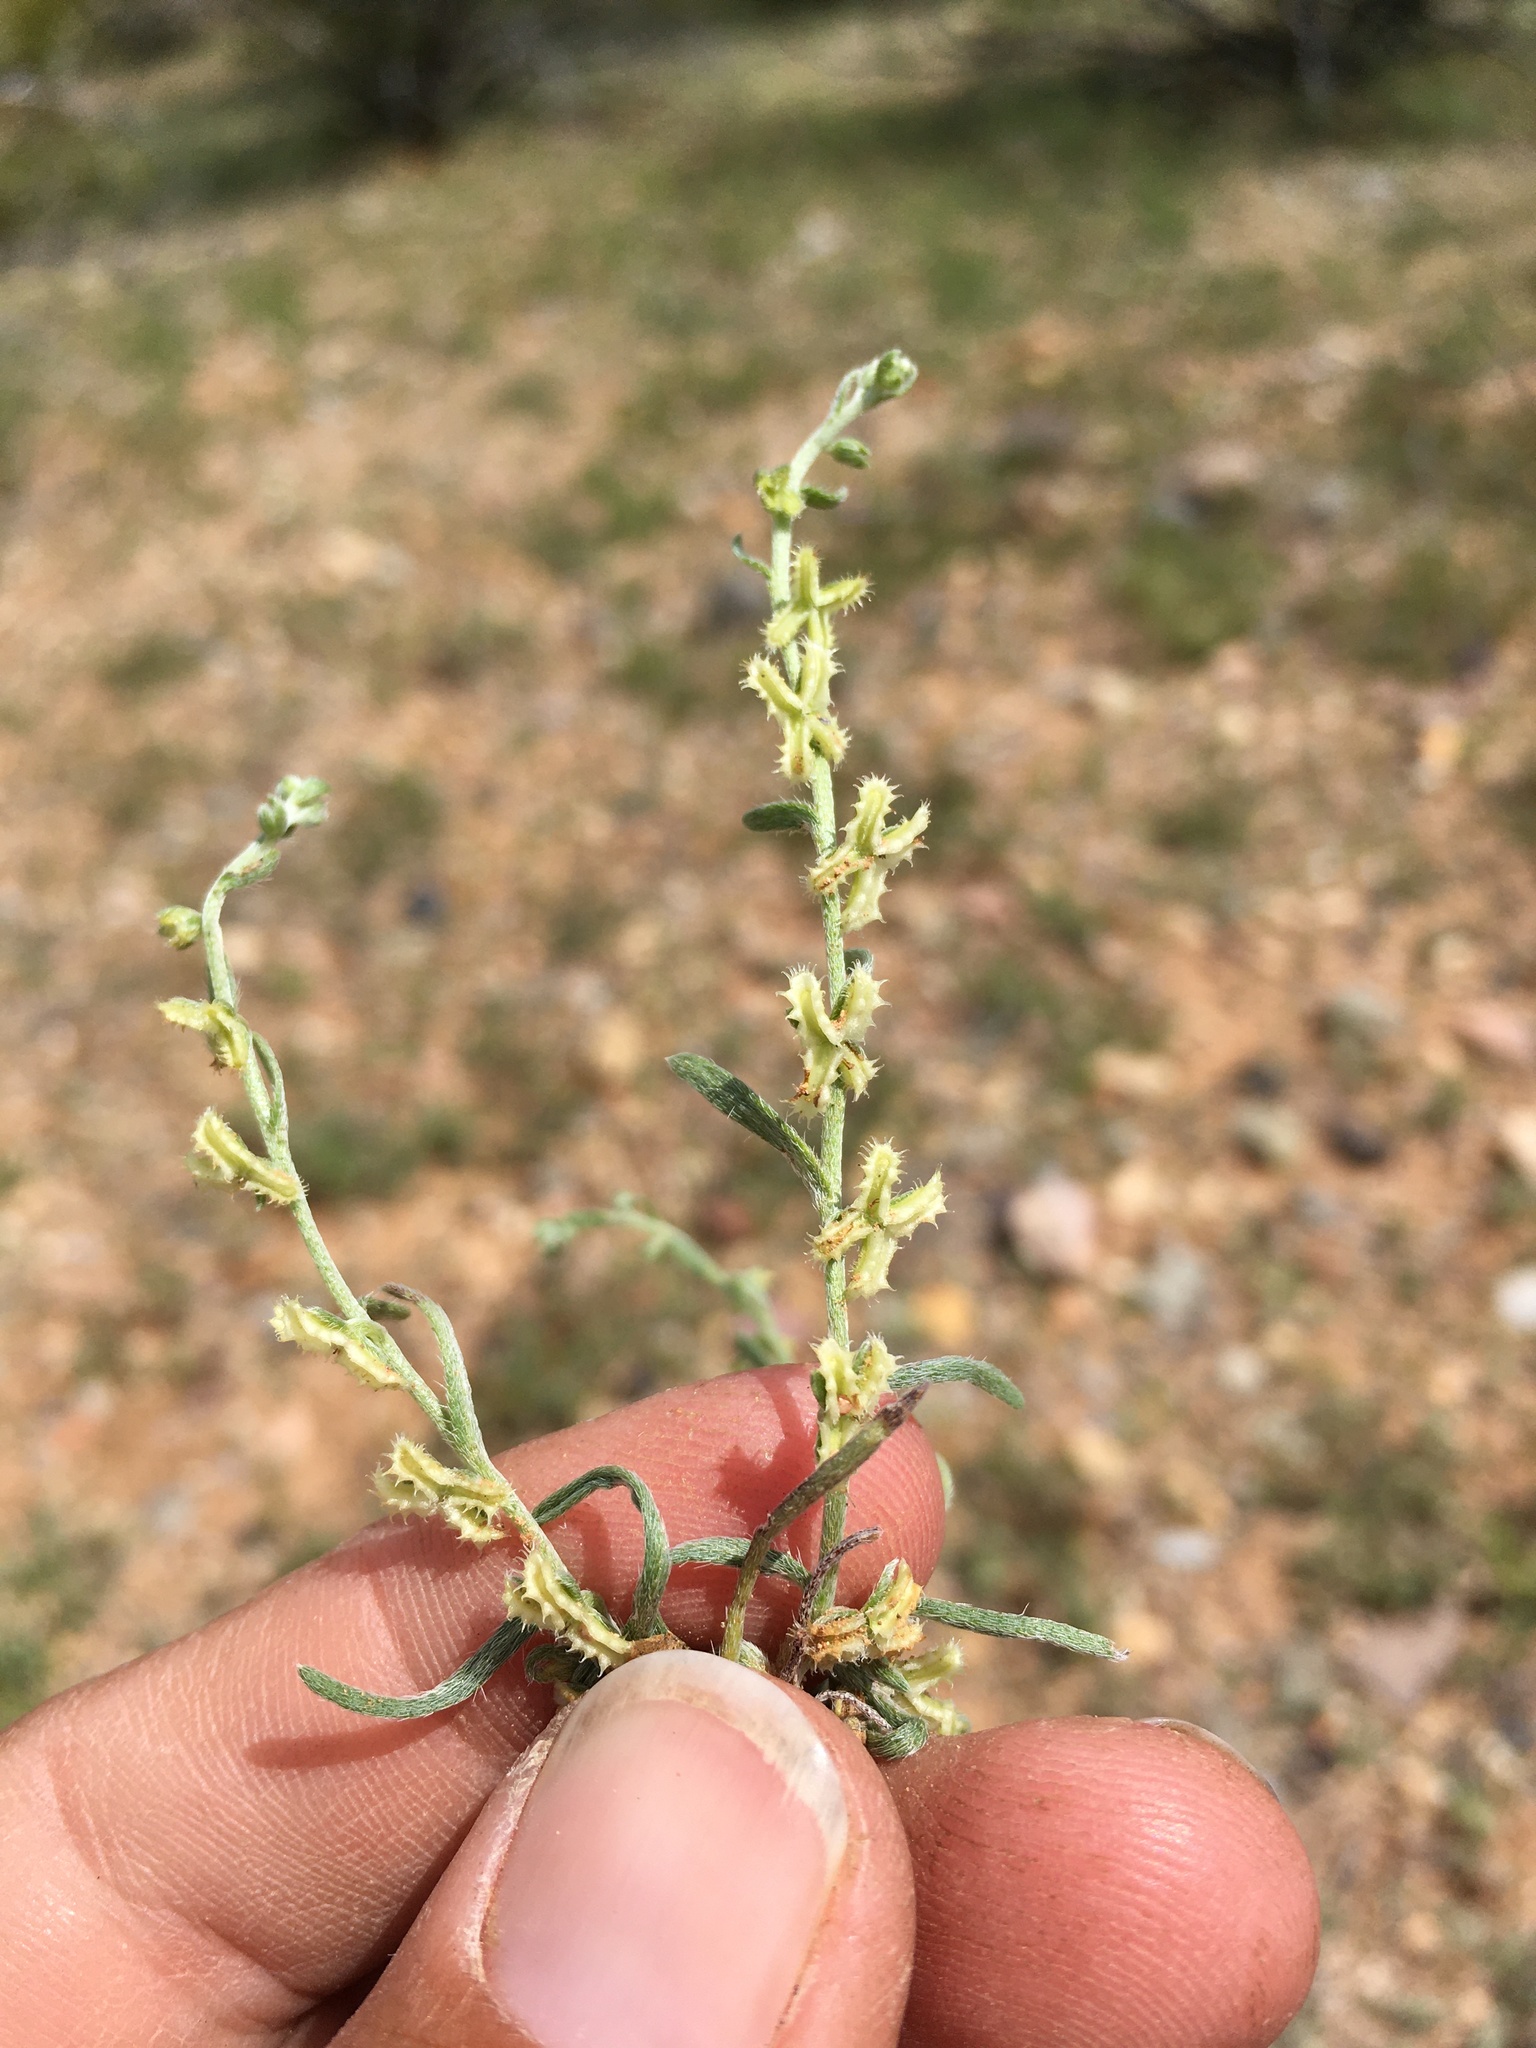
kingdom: Plantae
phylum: Tracheophyta
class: Magnoliopsida
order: Boraginales
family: Boraginaceae
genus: Pectocarya
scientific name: Pectocarya platycarpa
